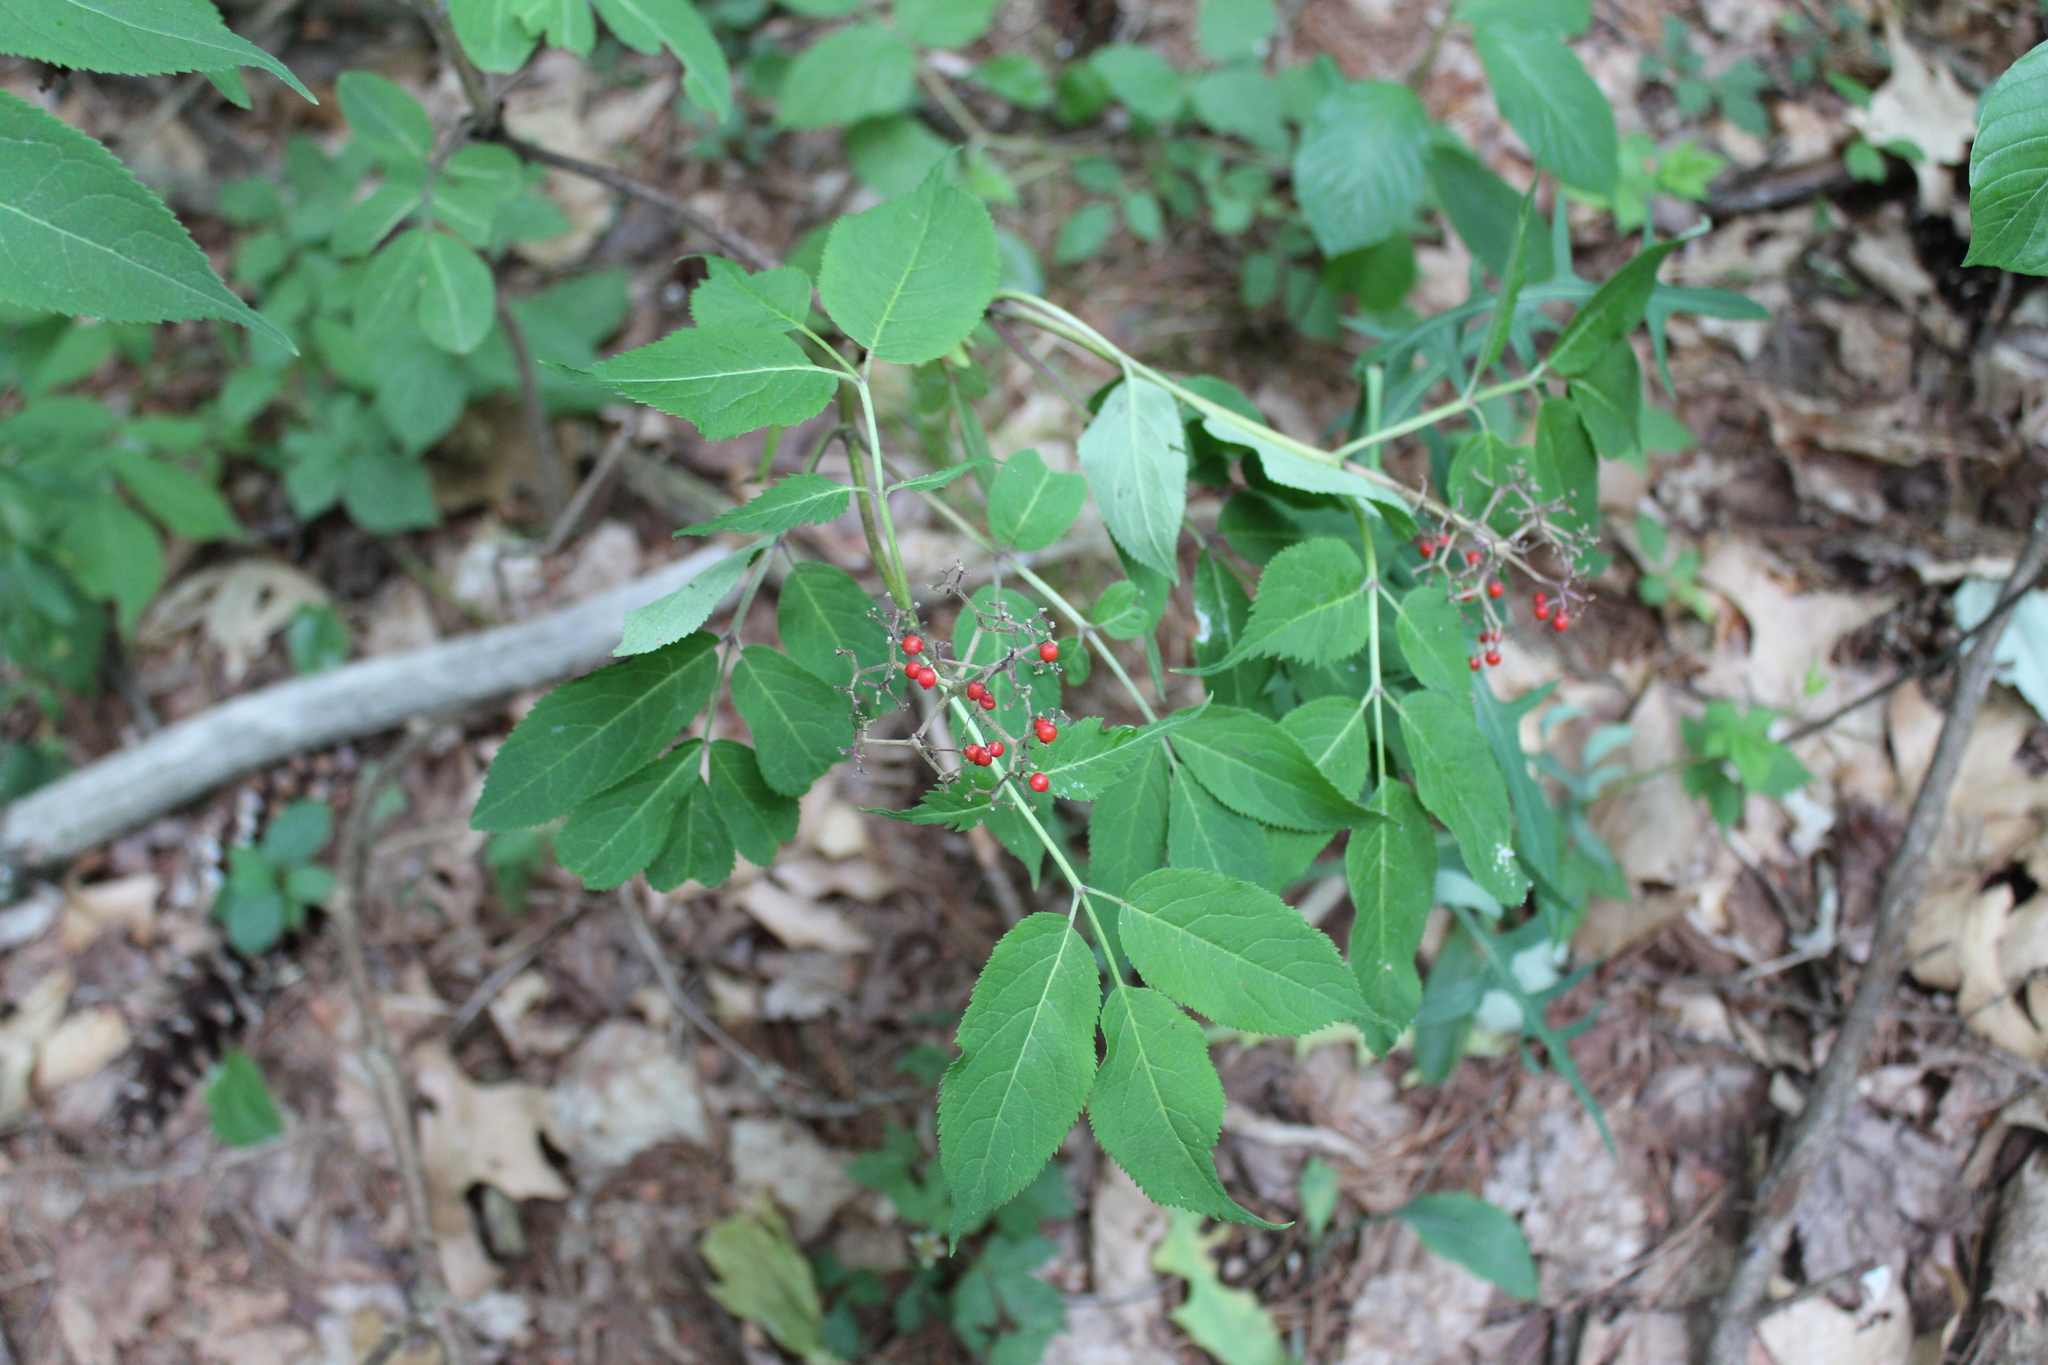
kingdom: Plantae
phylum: Tracheophyta
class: Magnoliopsida
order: Dipsacales
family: Viburnaceae
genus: Sambucus
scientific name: Sambucus racemosa
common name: Red-berried elder
